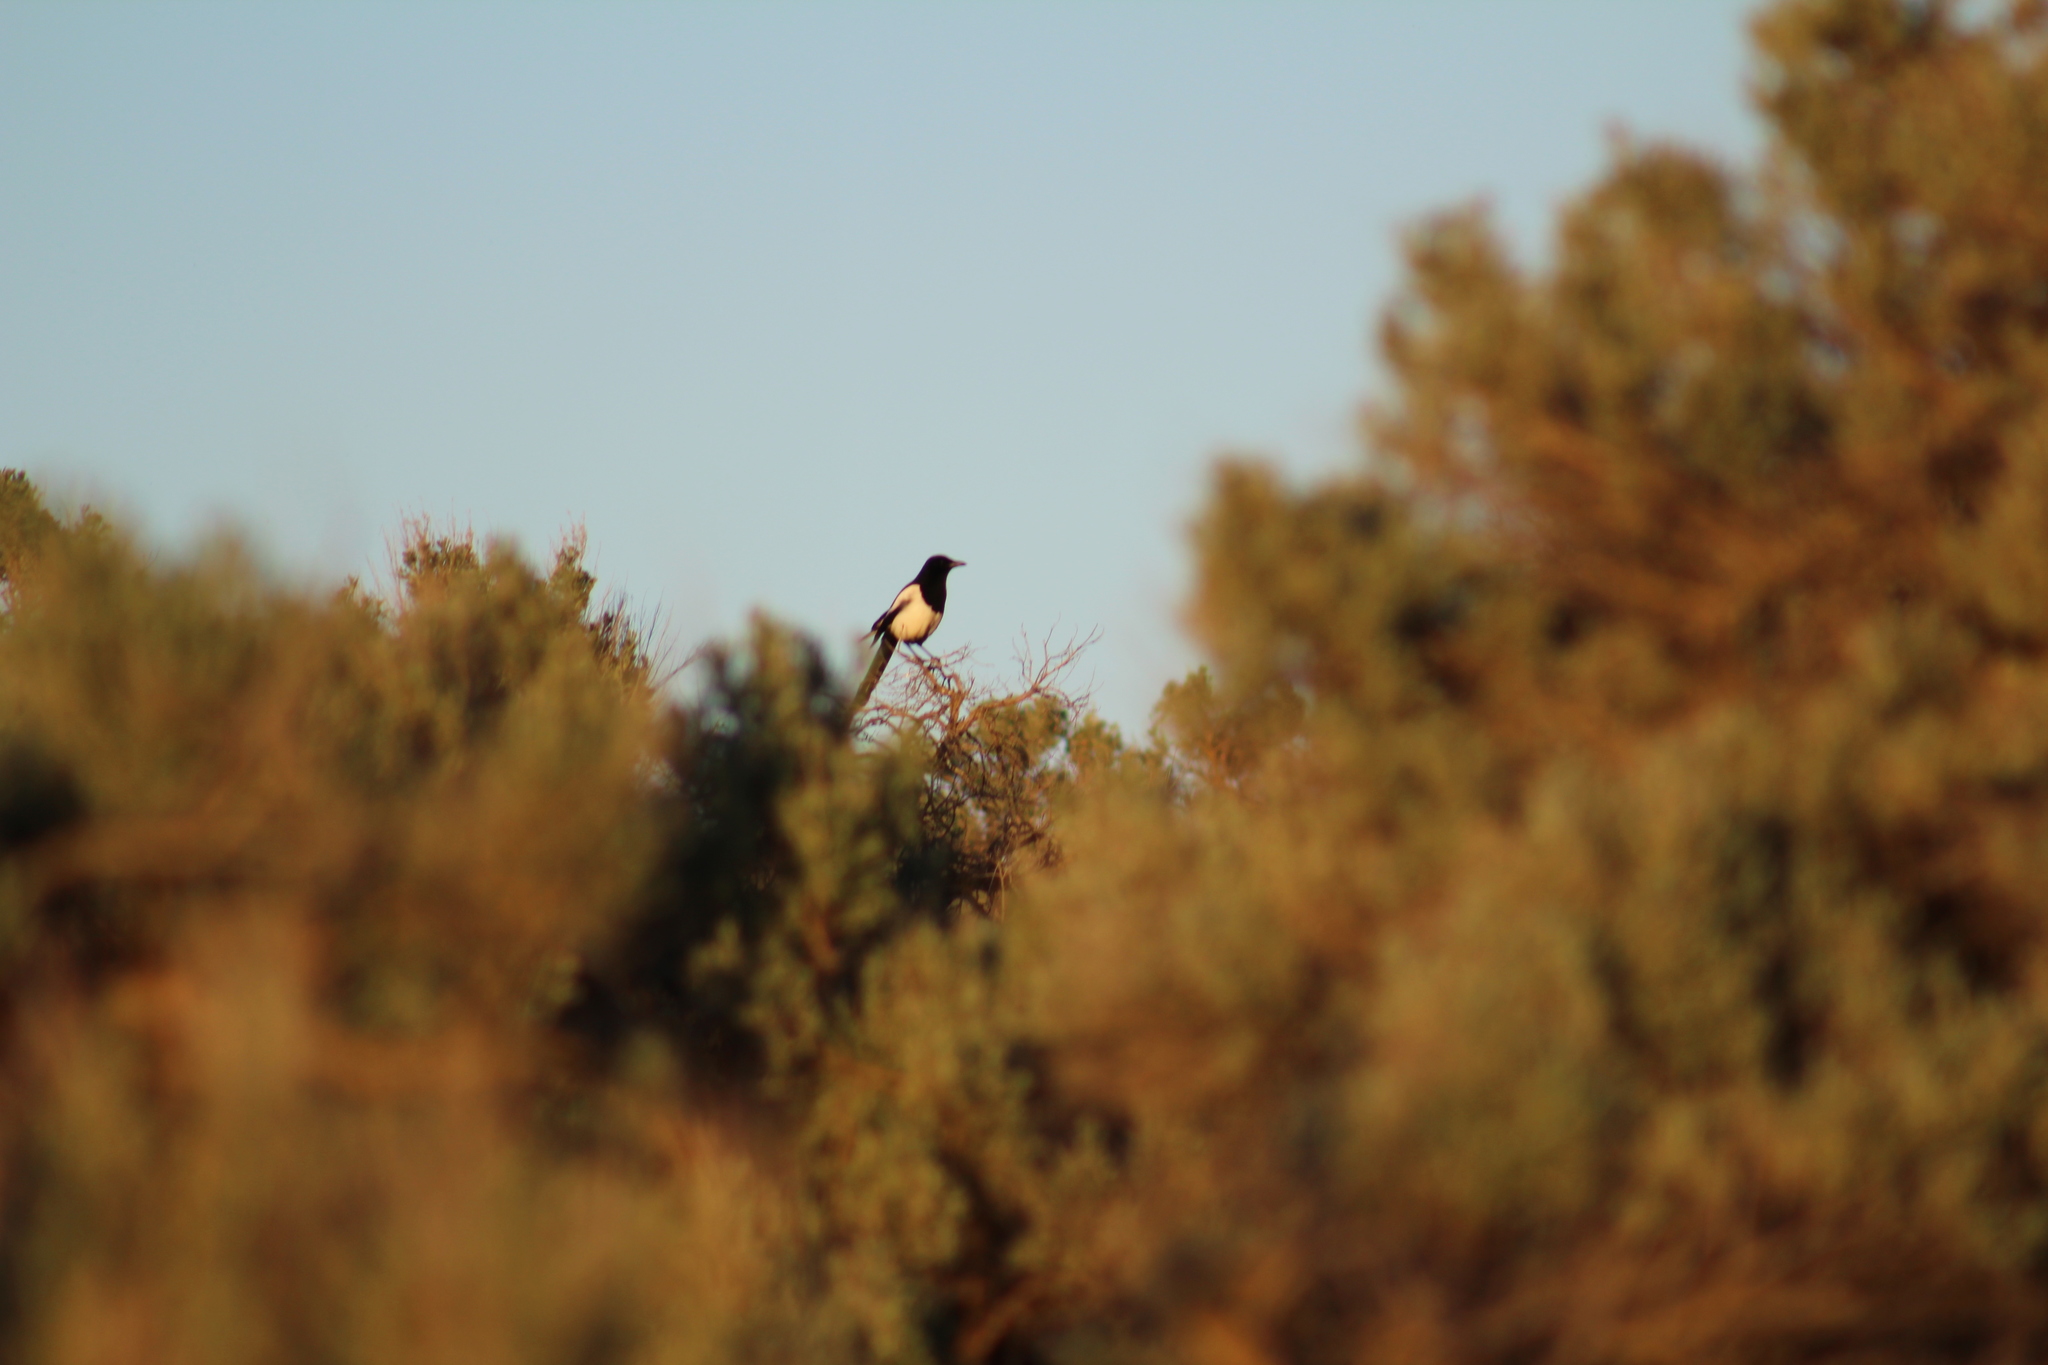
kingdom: Animalia
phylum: Chordata
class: Aves
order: Passeriformes
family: Corvidae
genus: Pica
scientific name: Pica hudsonia
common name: Black-billed magpie
